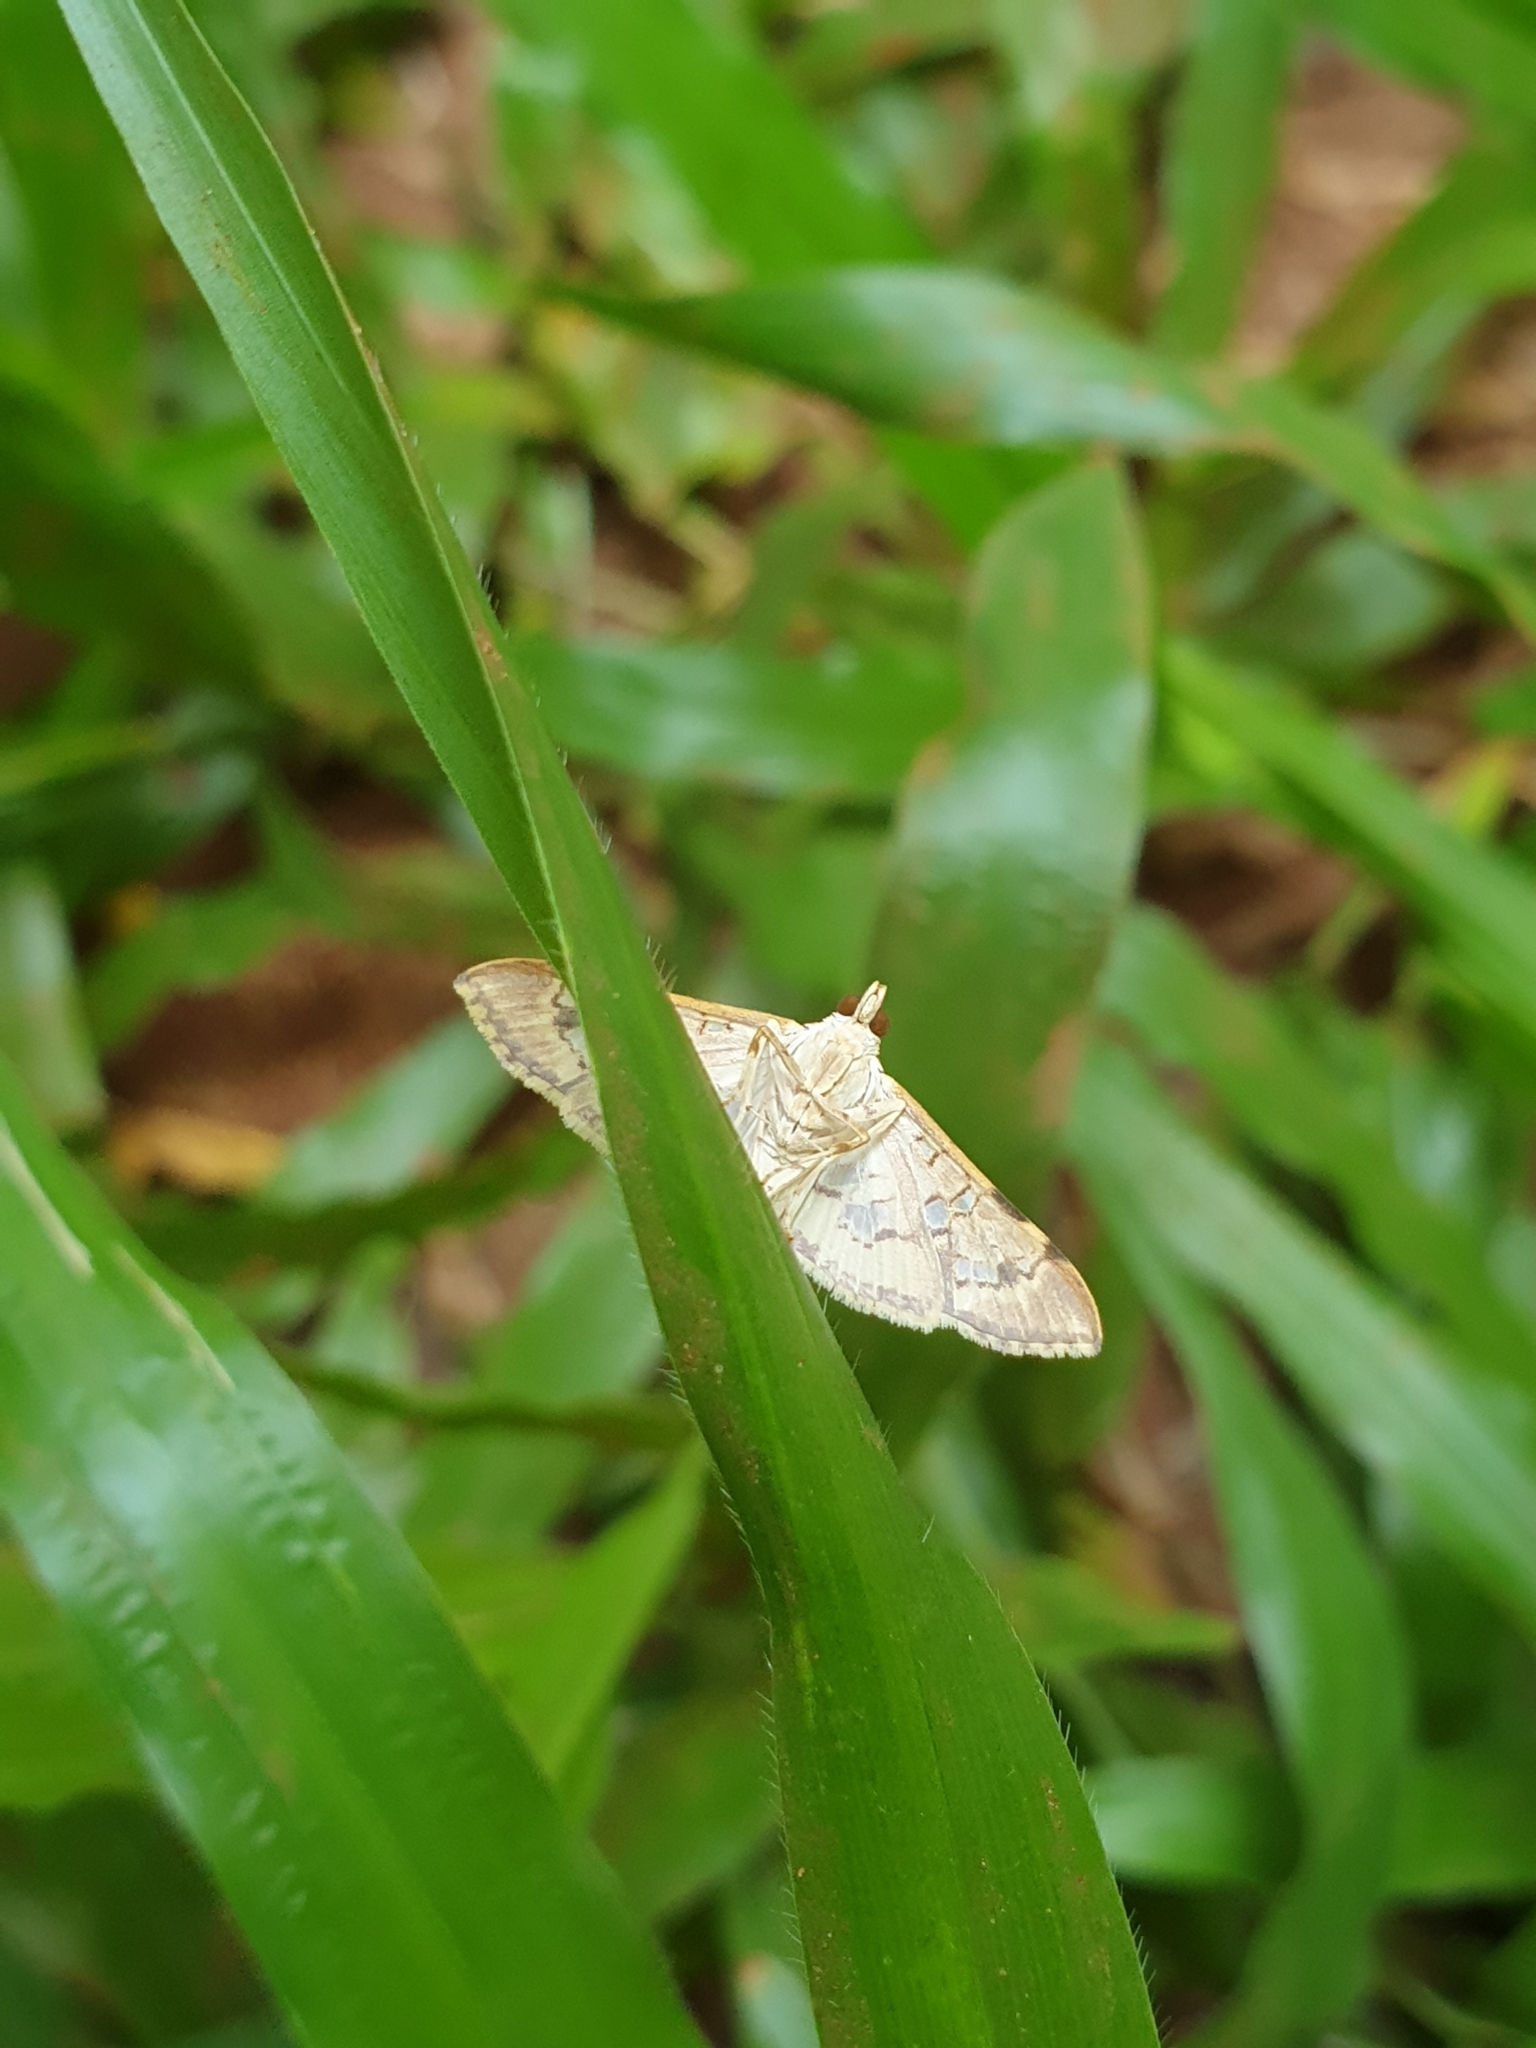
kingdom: Animalia
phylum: Arthropoda
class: Insecta
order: Lepidoptera
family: Crambidae
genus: Ischnurges
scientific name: Ischnurges gratiosalis
